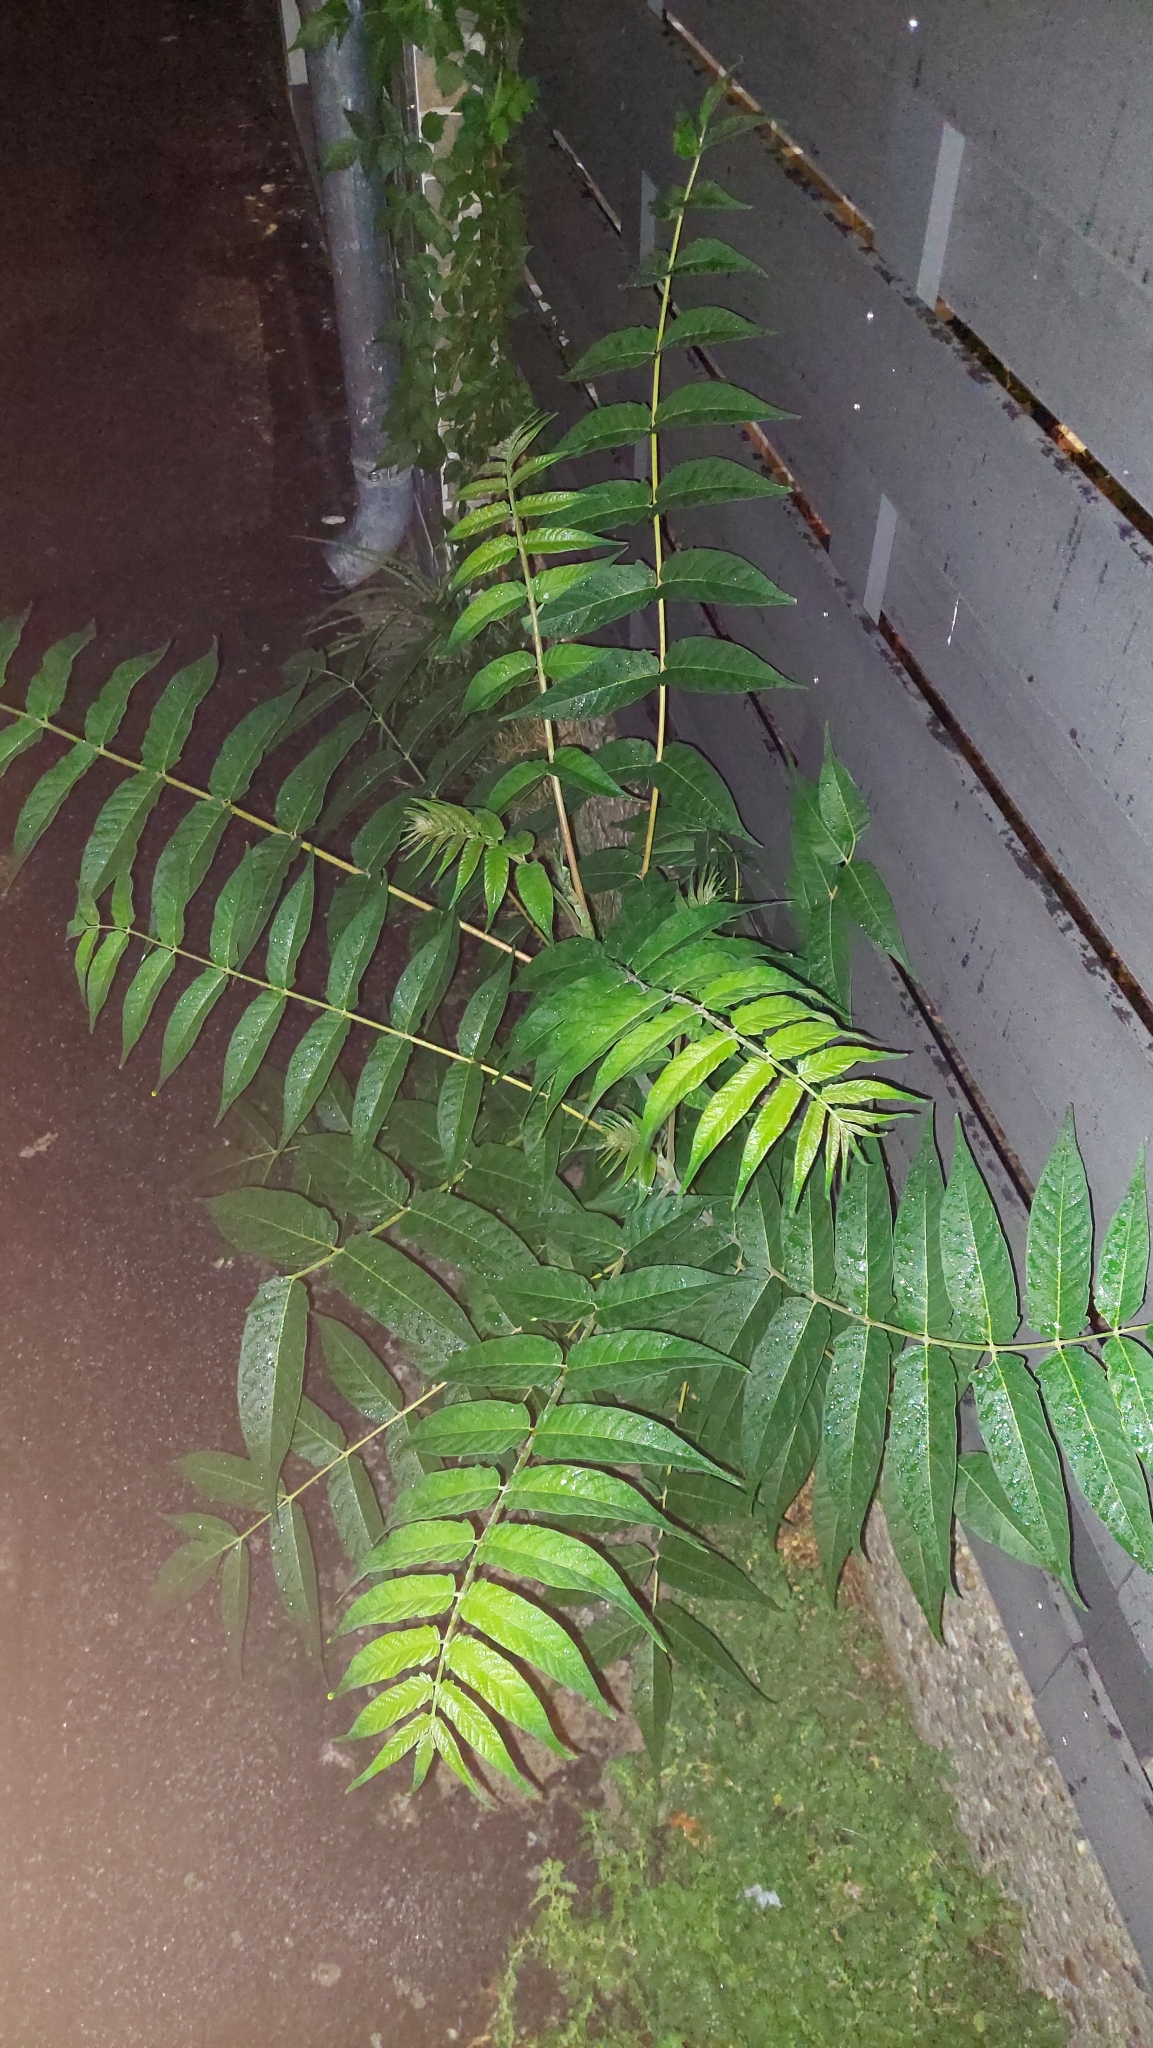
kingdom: Plantae
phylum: Tracheophyta
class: Magnoliopsida
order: Sapindales
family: Simaroubaceae
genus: Ailanthus
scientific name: Ailanthus altissima
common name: Tree-of-heaven
